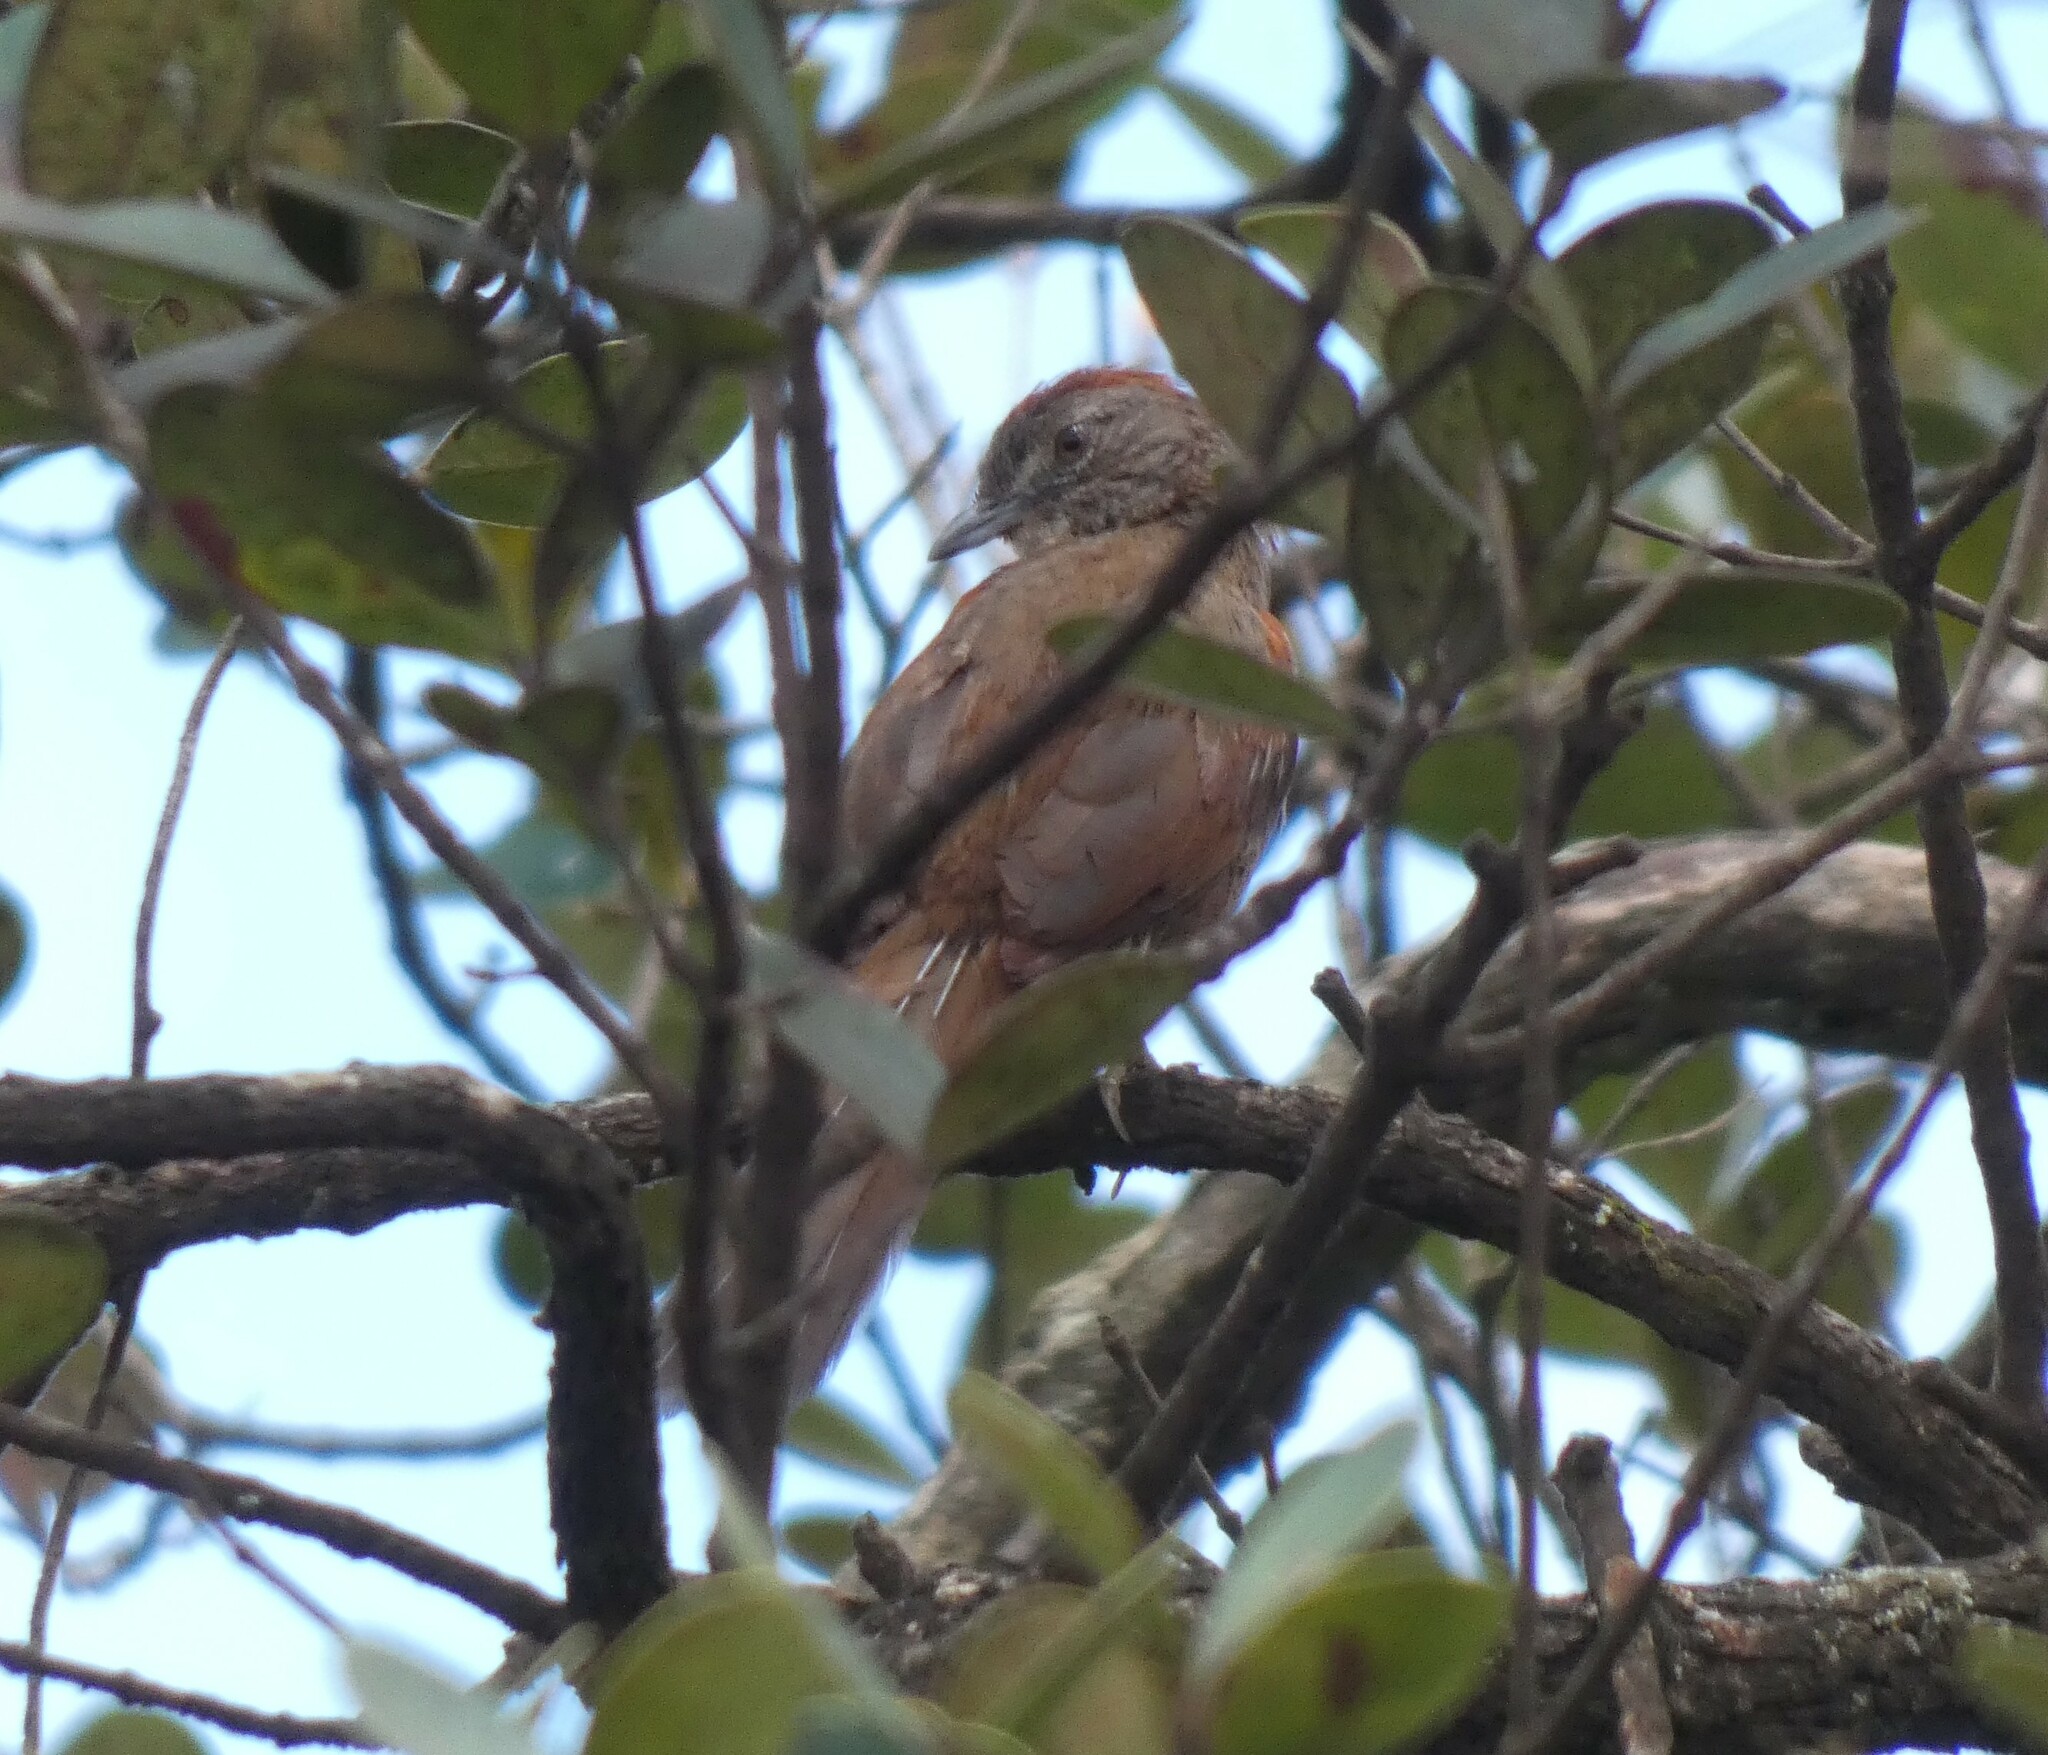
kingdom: Animalia
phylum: Chordata
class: Aves
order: Passeriformes
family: Furnariidae
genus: Synallaxis
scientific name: Synallaxis albescens
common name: Pale-breasted spinetail
